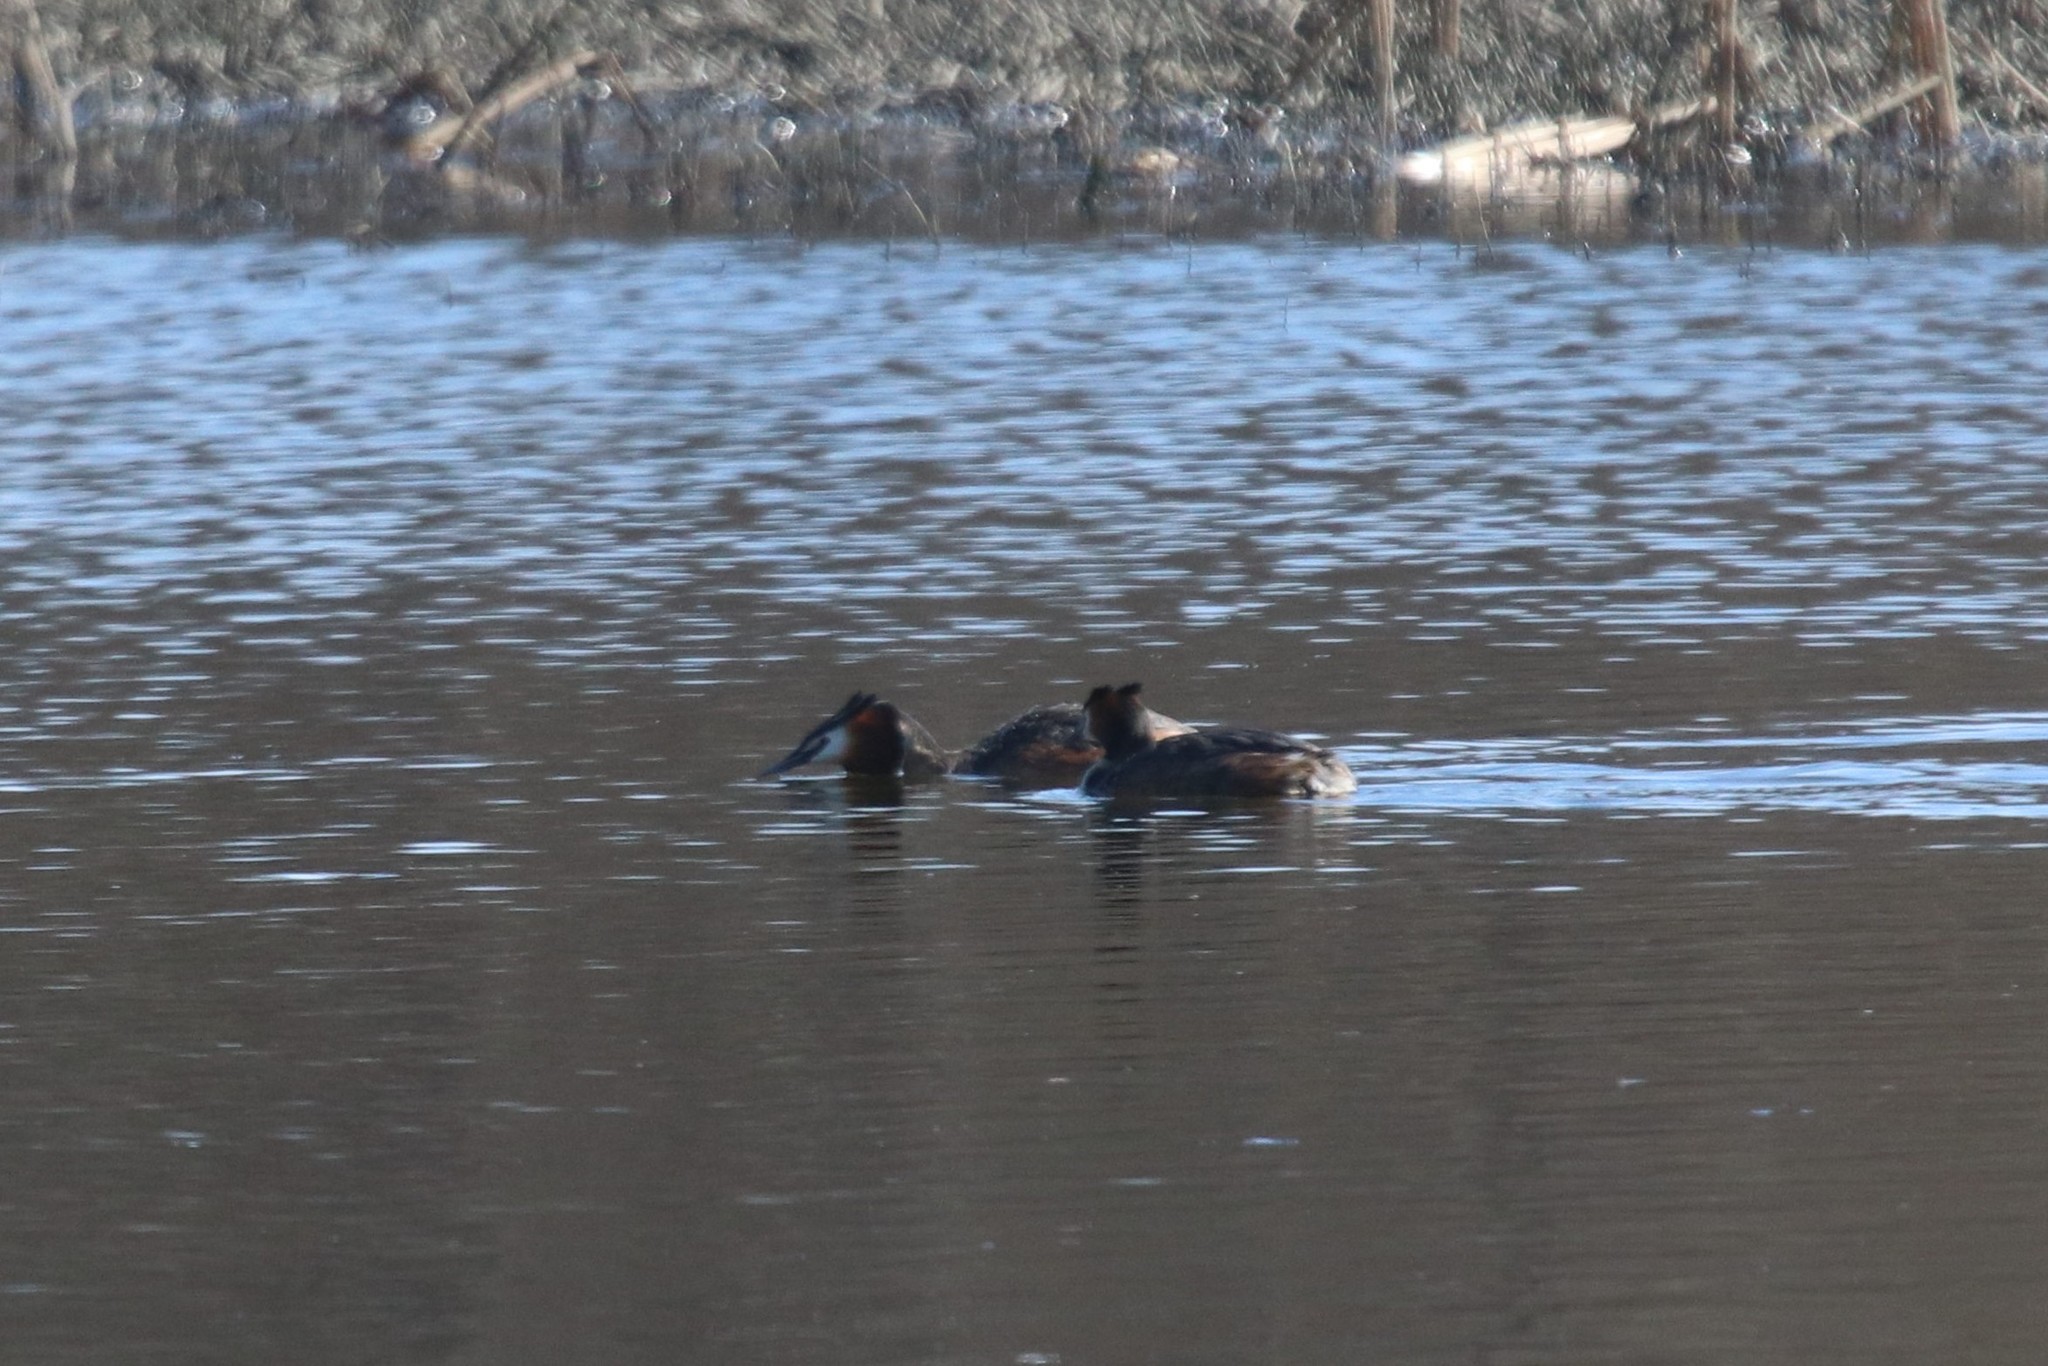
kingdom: Animalia
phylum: Chordata
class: Aves
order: Podicipediformes
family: Podicipedidae
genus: Podiceps
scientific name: Podiceps cristatus
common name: Great crested grebe
